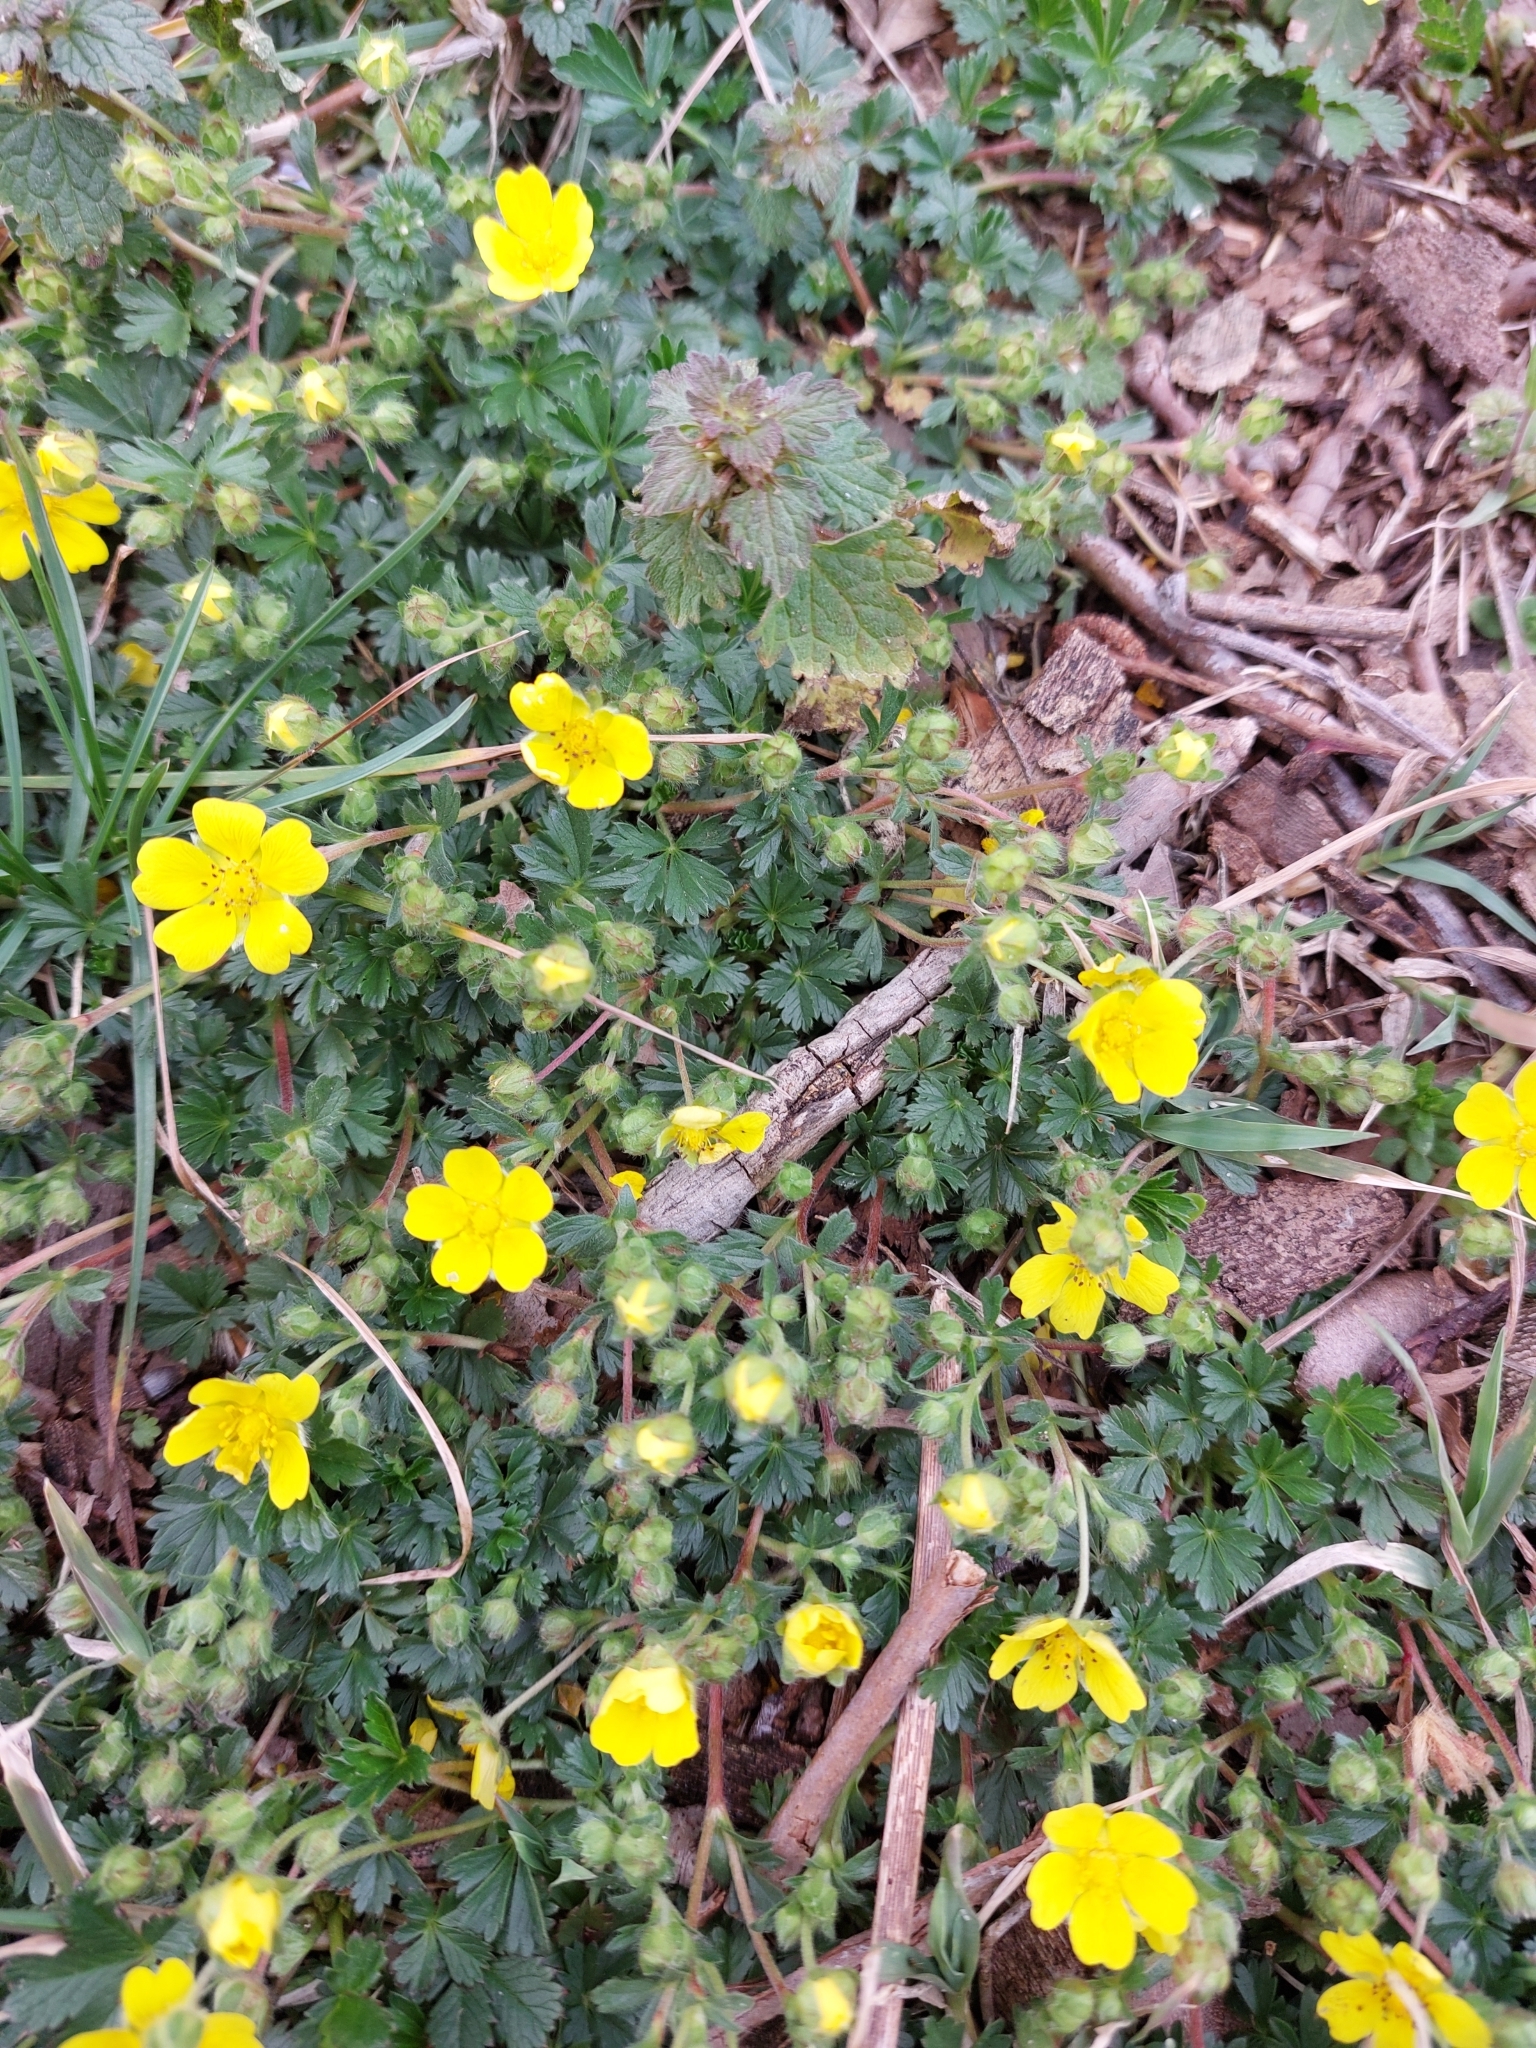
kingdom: Plantae
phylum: Tracheophyta
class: Magnoliopsida
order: Rosales
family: Rosaceae
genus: Potentilla
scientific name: Potentilla verna
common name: Spring cinquefoil
